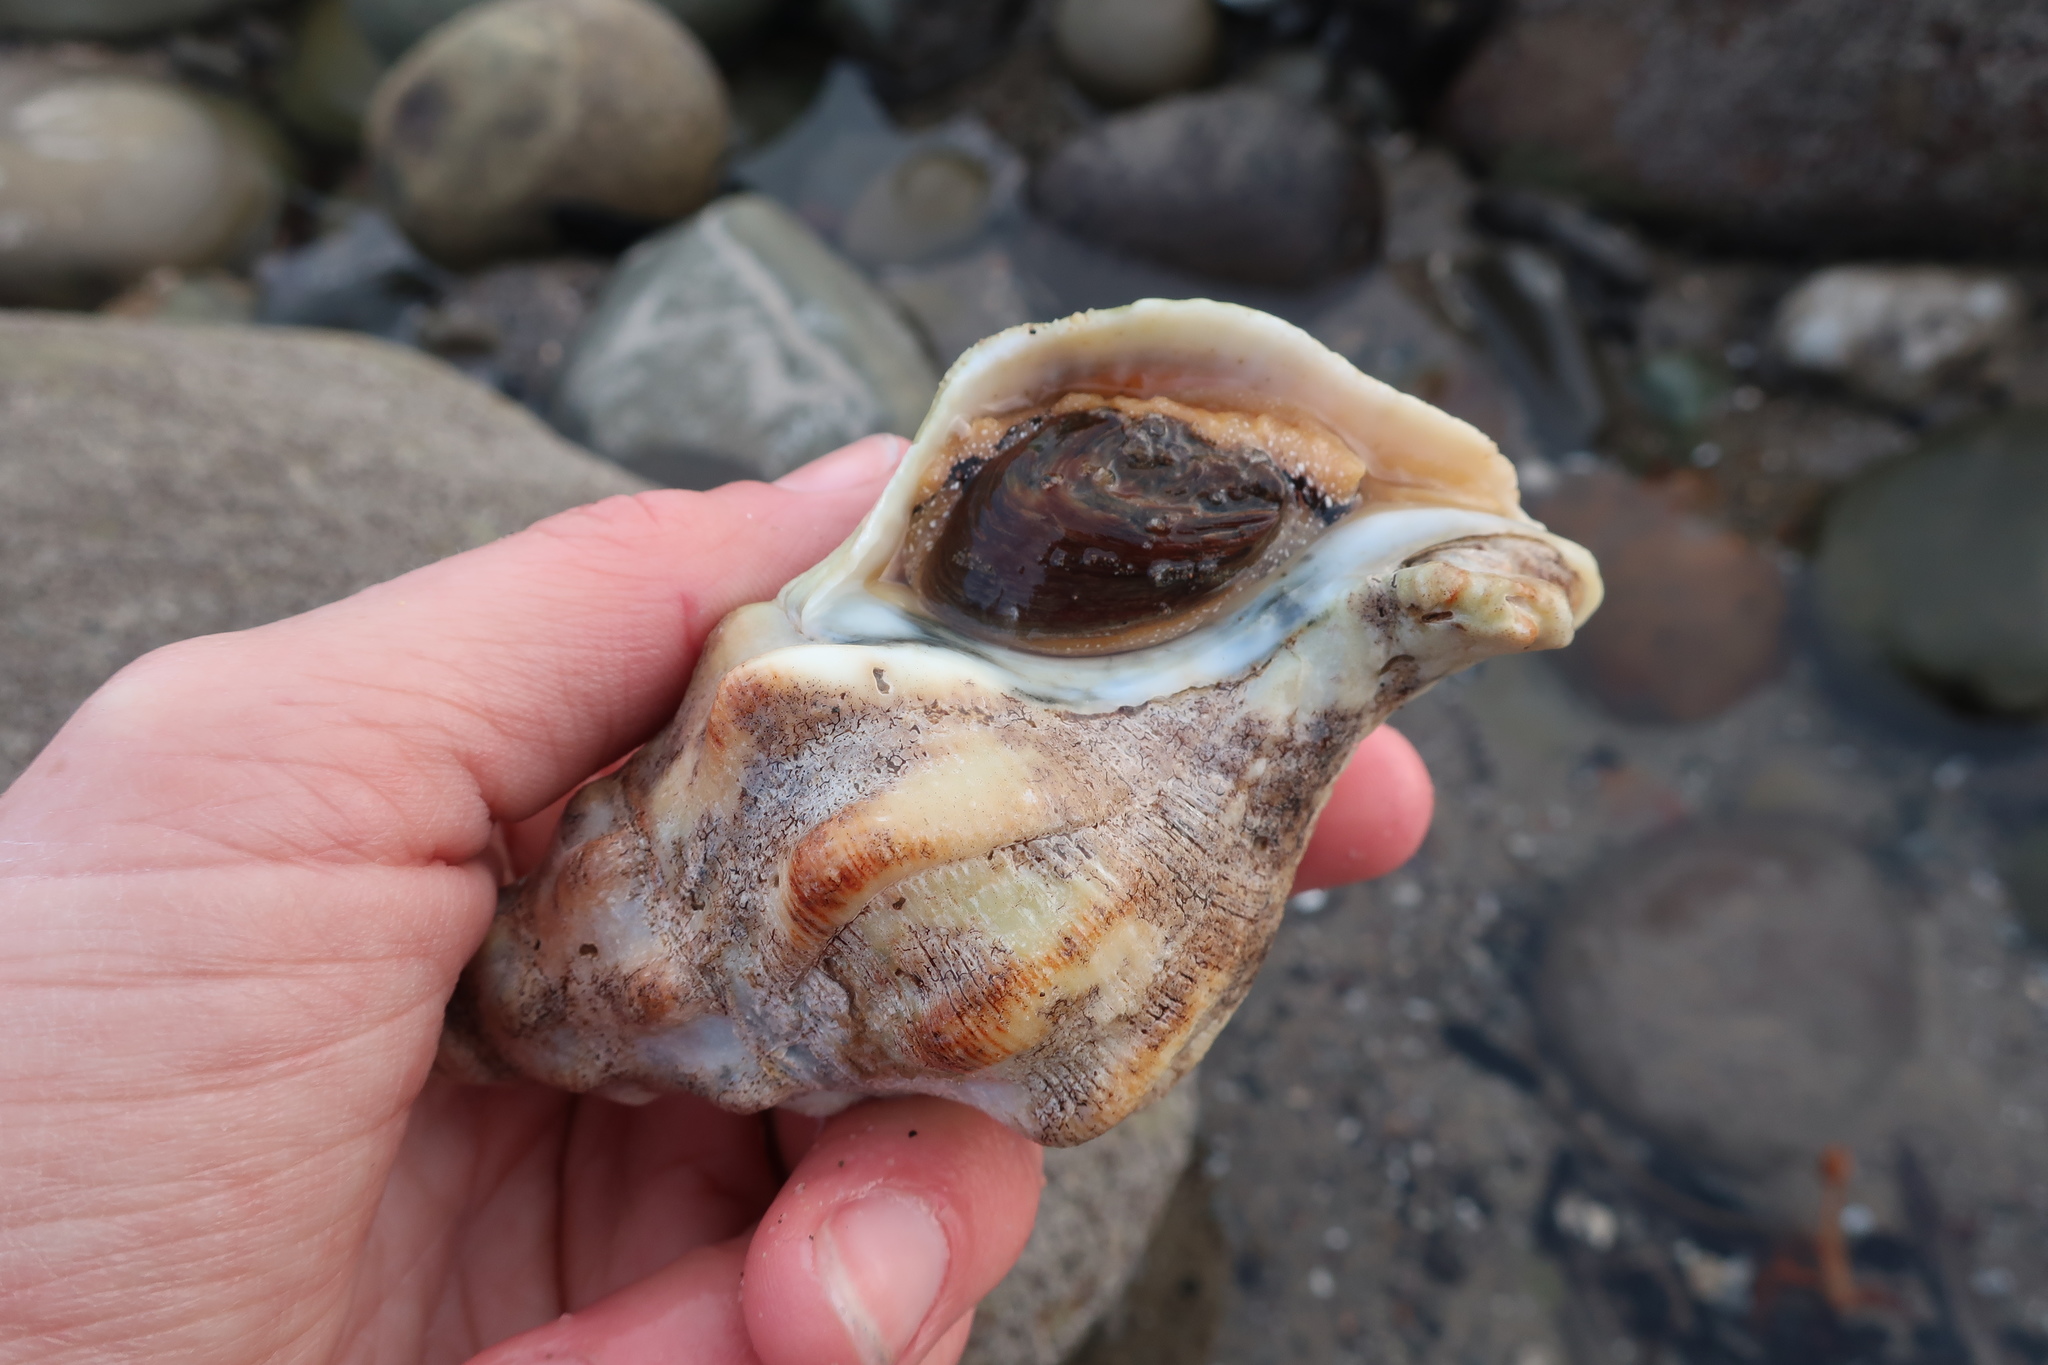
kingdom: Animalia
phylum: Mollusca
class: Gastropoda
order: Neogastropoda
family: Austrosiphonidae
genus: Kelletia
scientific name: Kelletia kelletii
